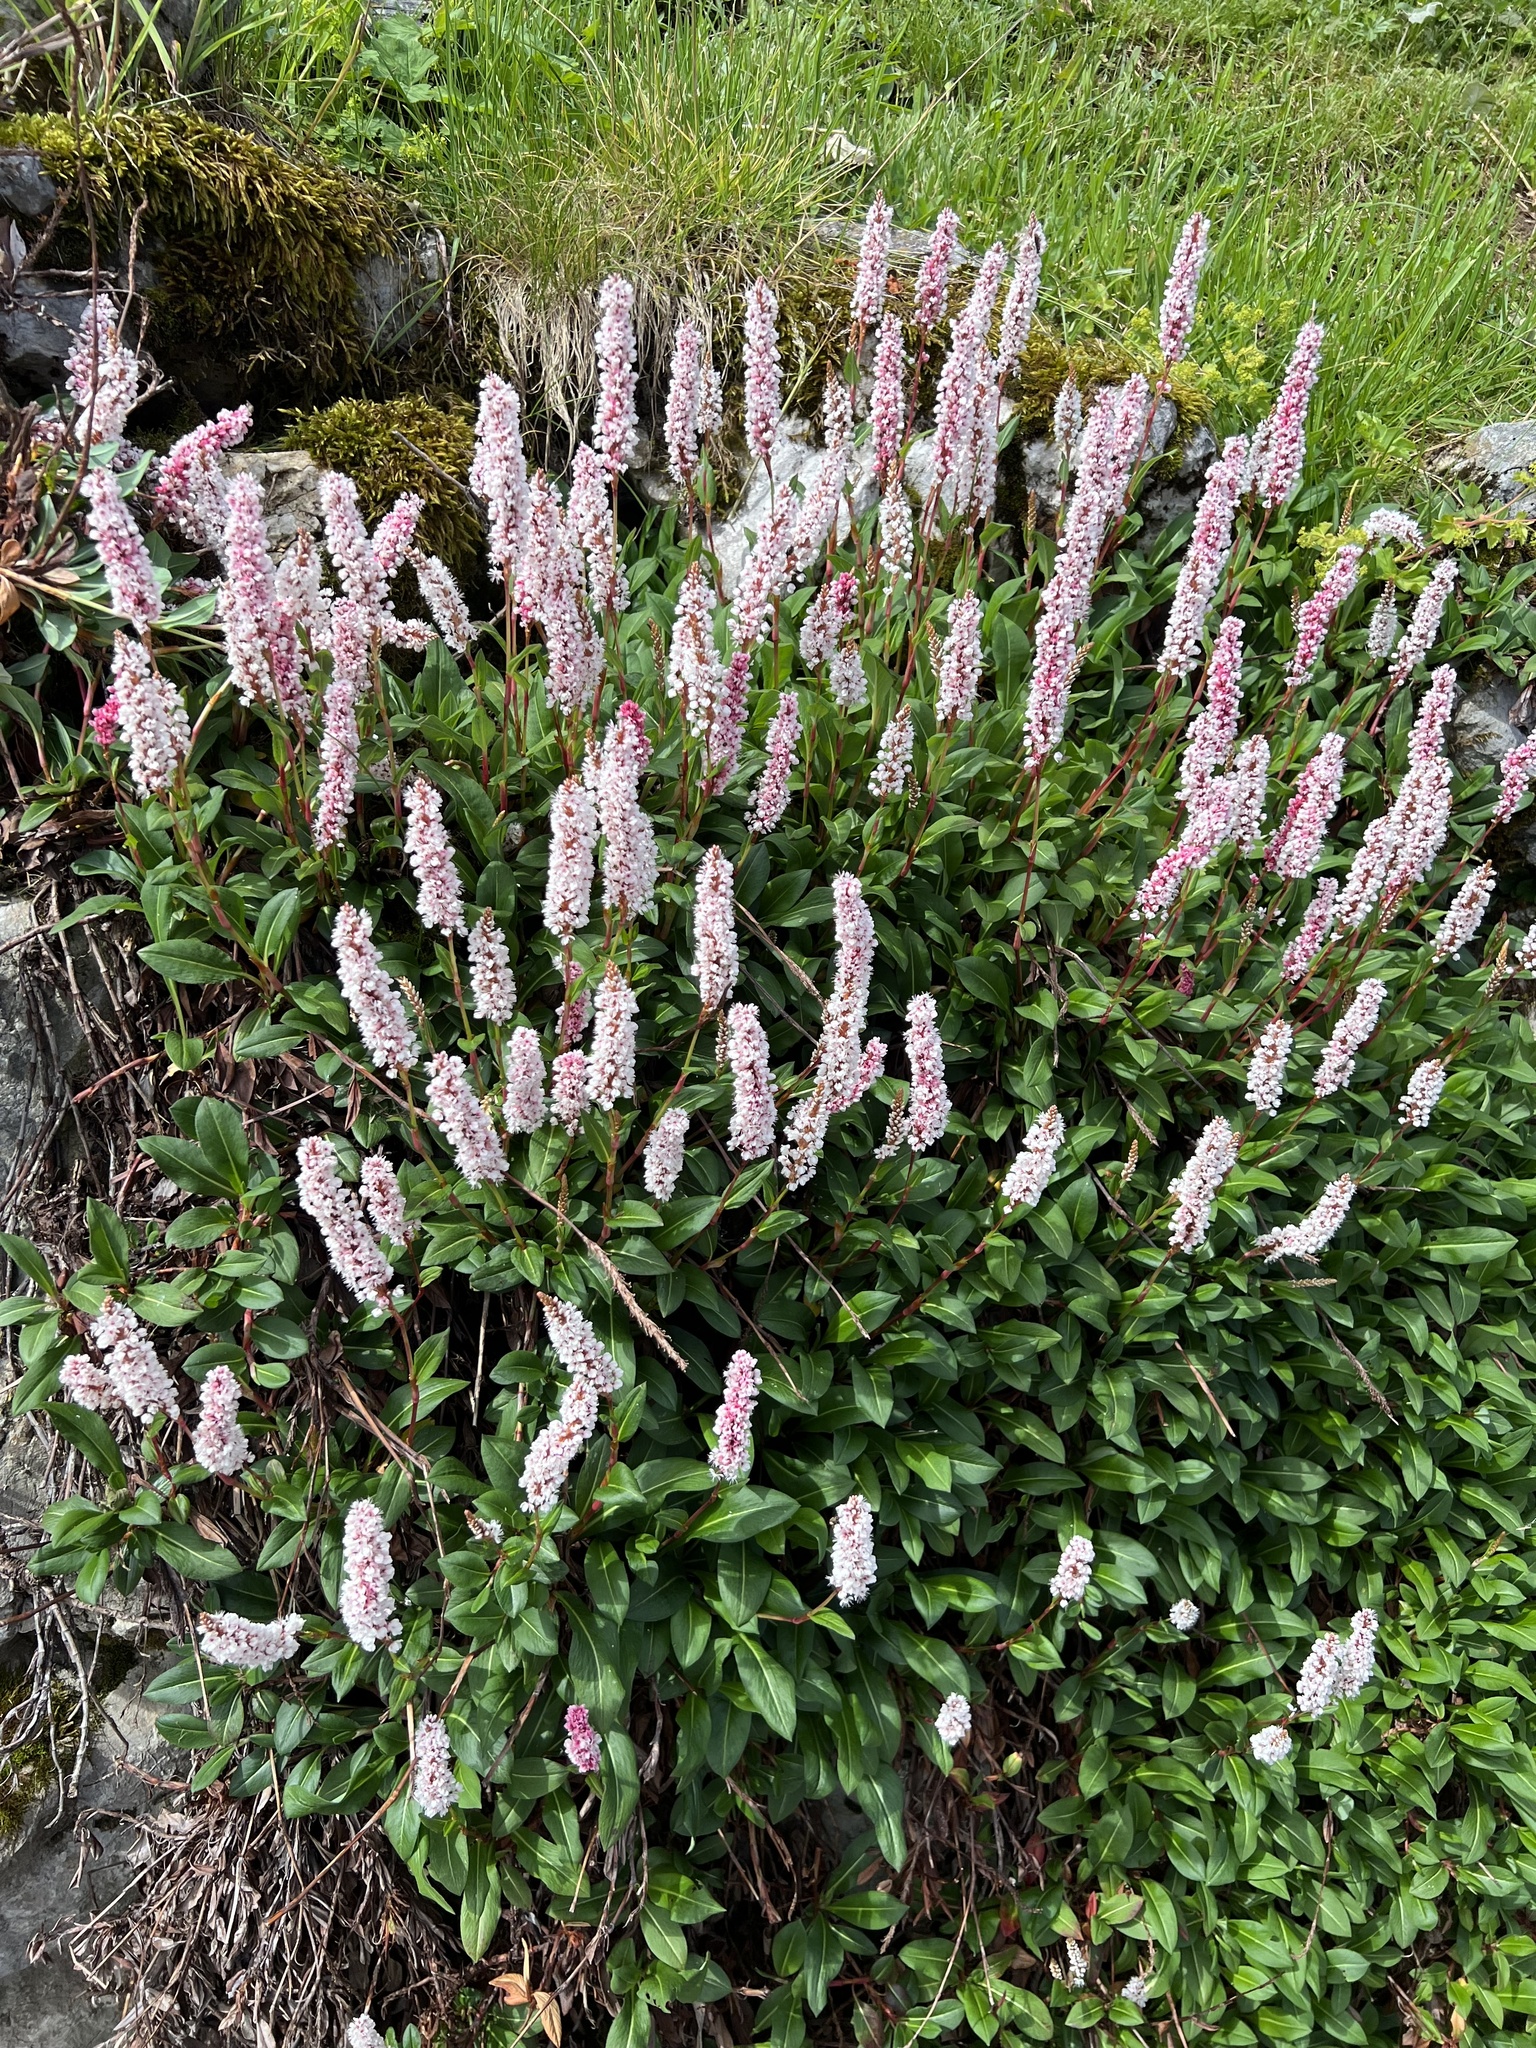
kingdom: Plantae
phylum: Tracheophyta
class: Magnoliopsida
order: Caryophyllales
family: Polygonaceae
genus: Bistorta
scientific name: Bistorta affinis
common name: Himalayan fleeceflower
